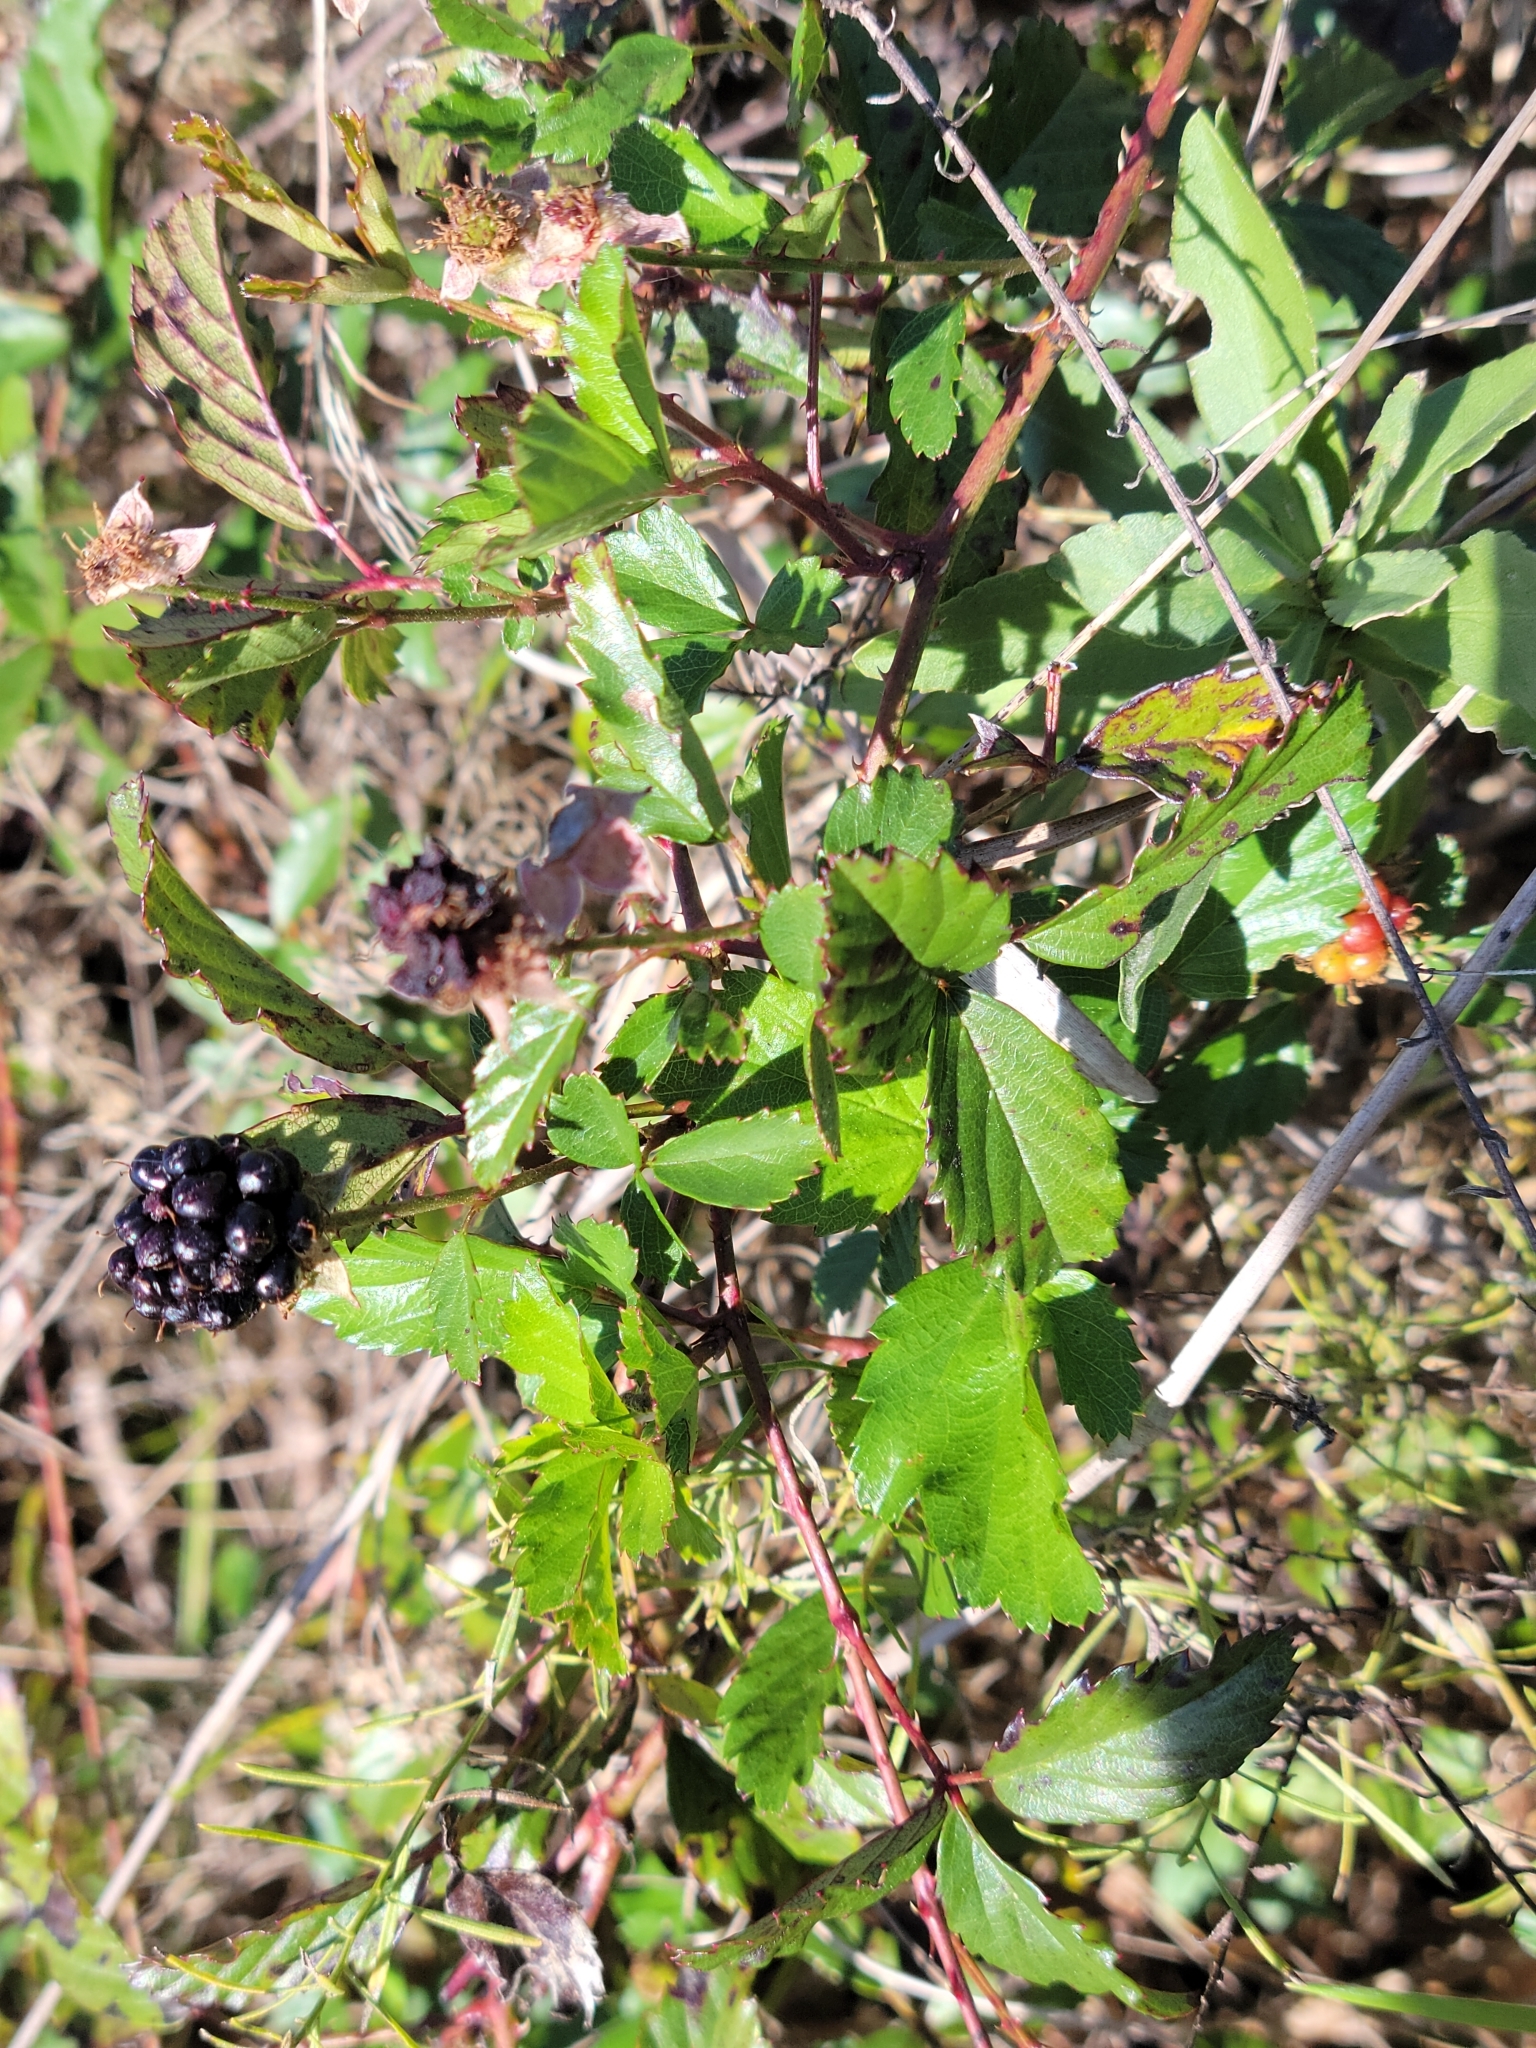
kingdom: Plantae
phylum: Tracheophyta
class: Magnoliopsida
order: Rosales
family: Rosaceae
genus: Rubus
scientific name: Rubus trivialis
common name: Southern dewberry
